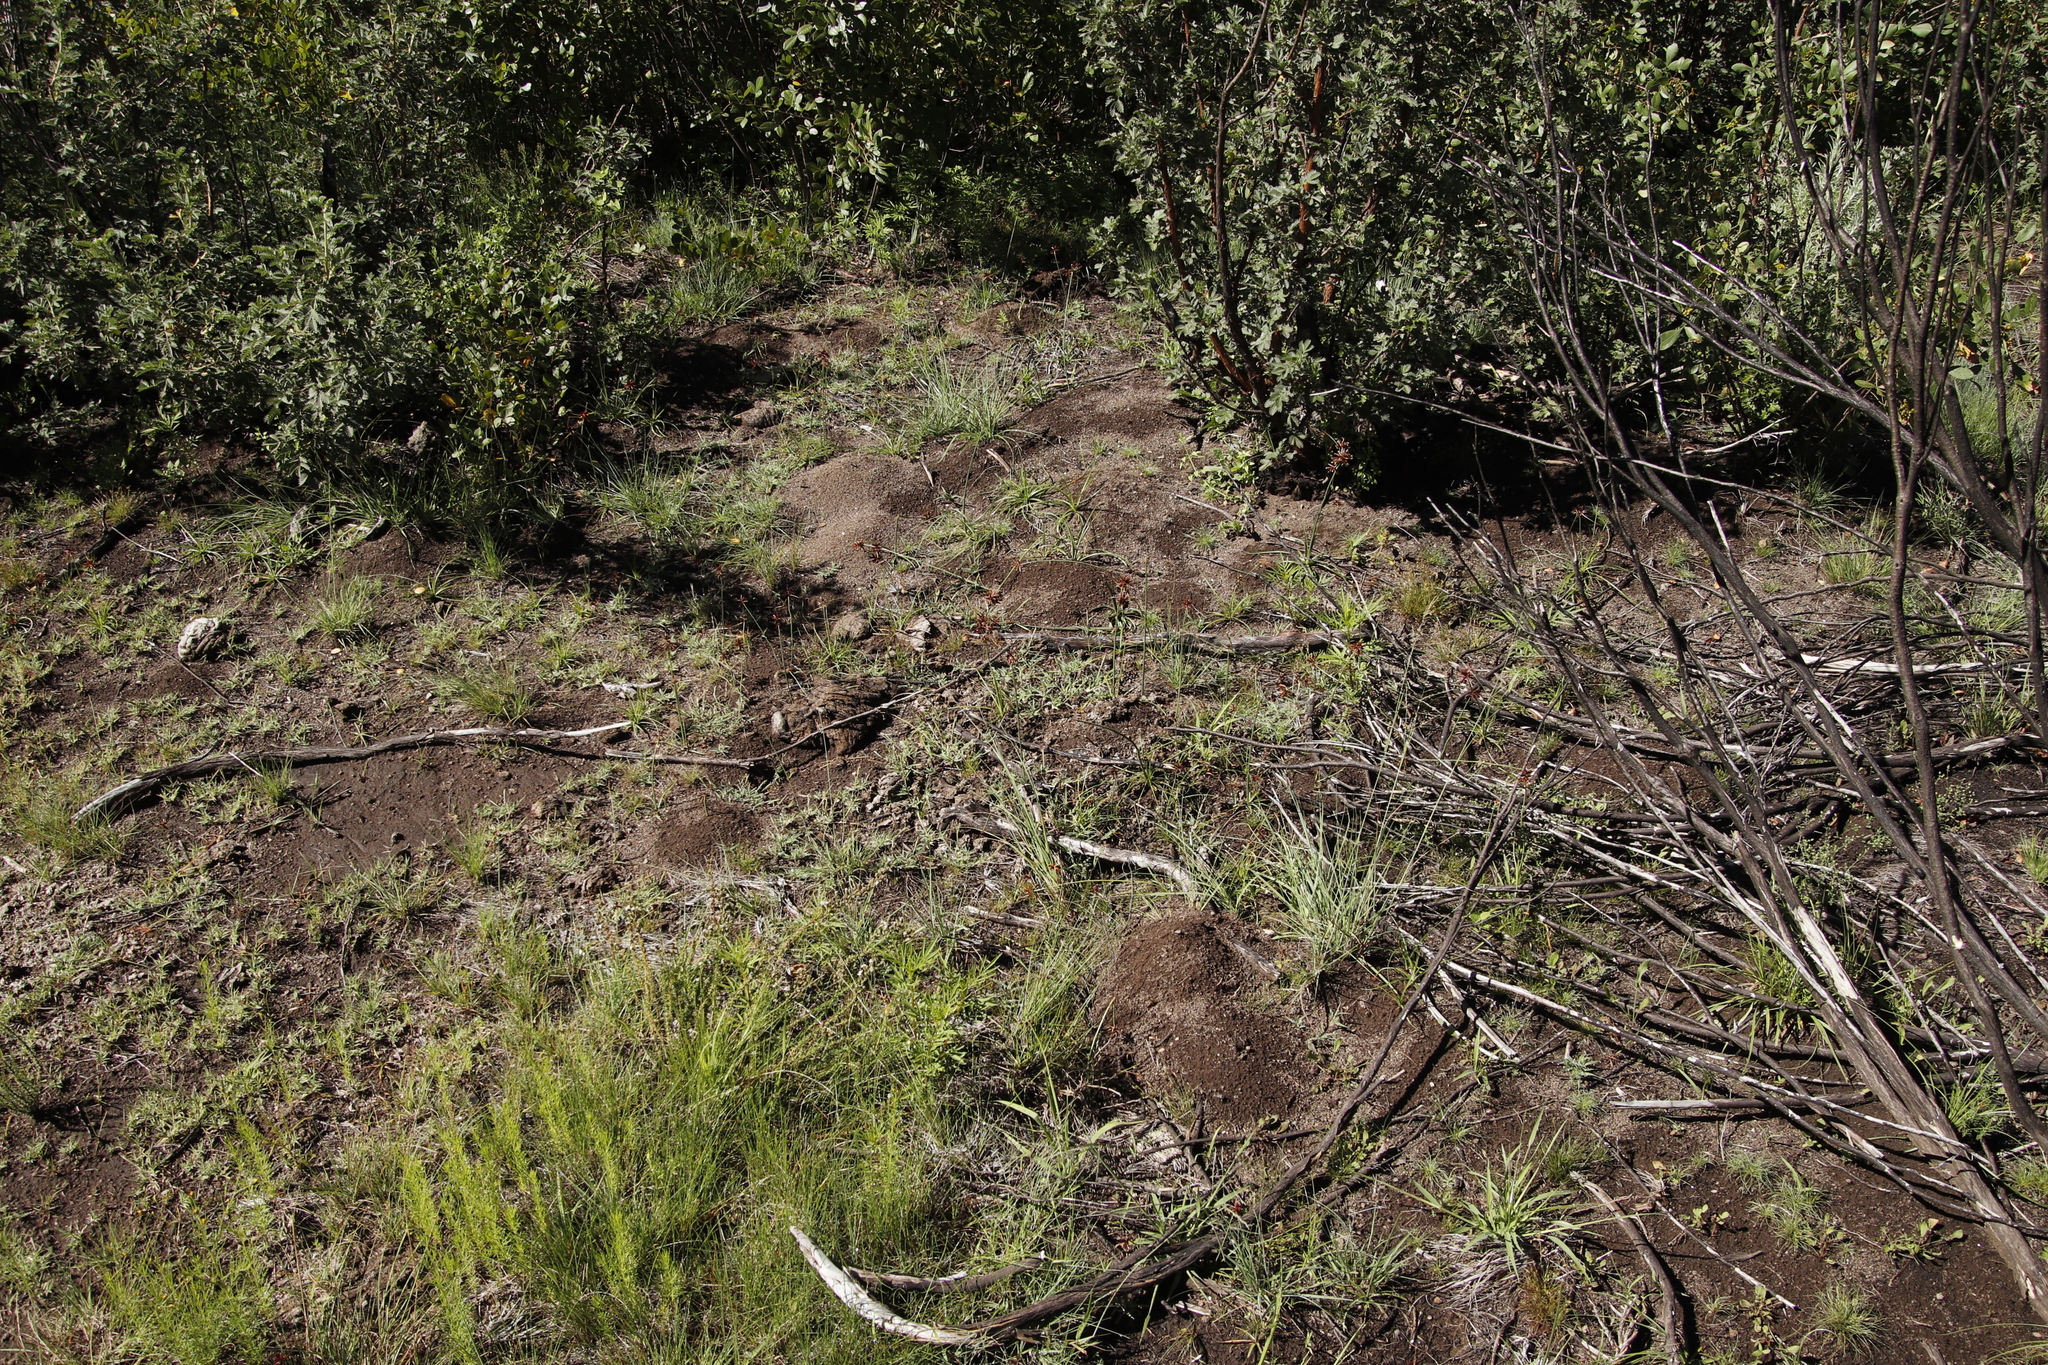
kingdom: Plantae
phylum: Tracheophyta
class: Liliopsida
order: Poales
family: Cyperaceae
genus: Cyperus
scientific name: Cyperus rupestris
